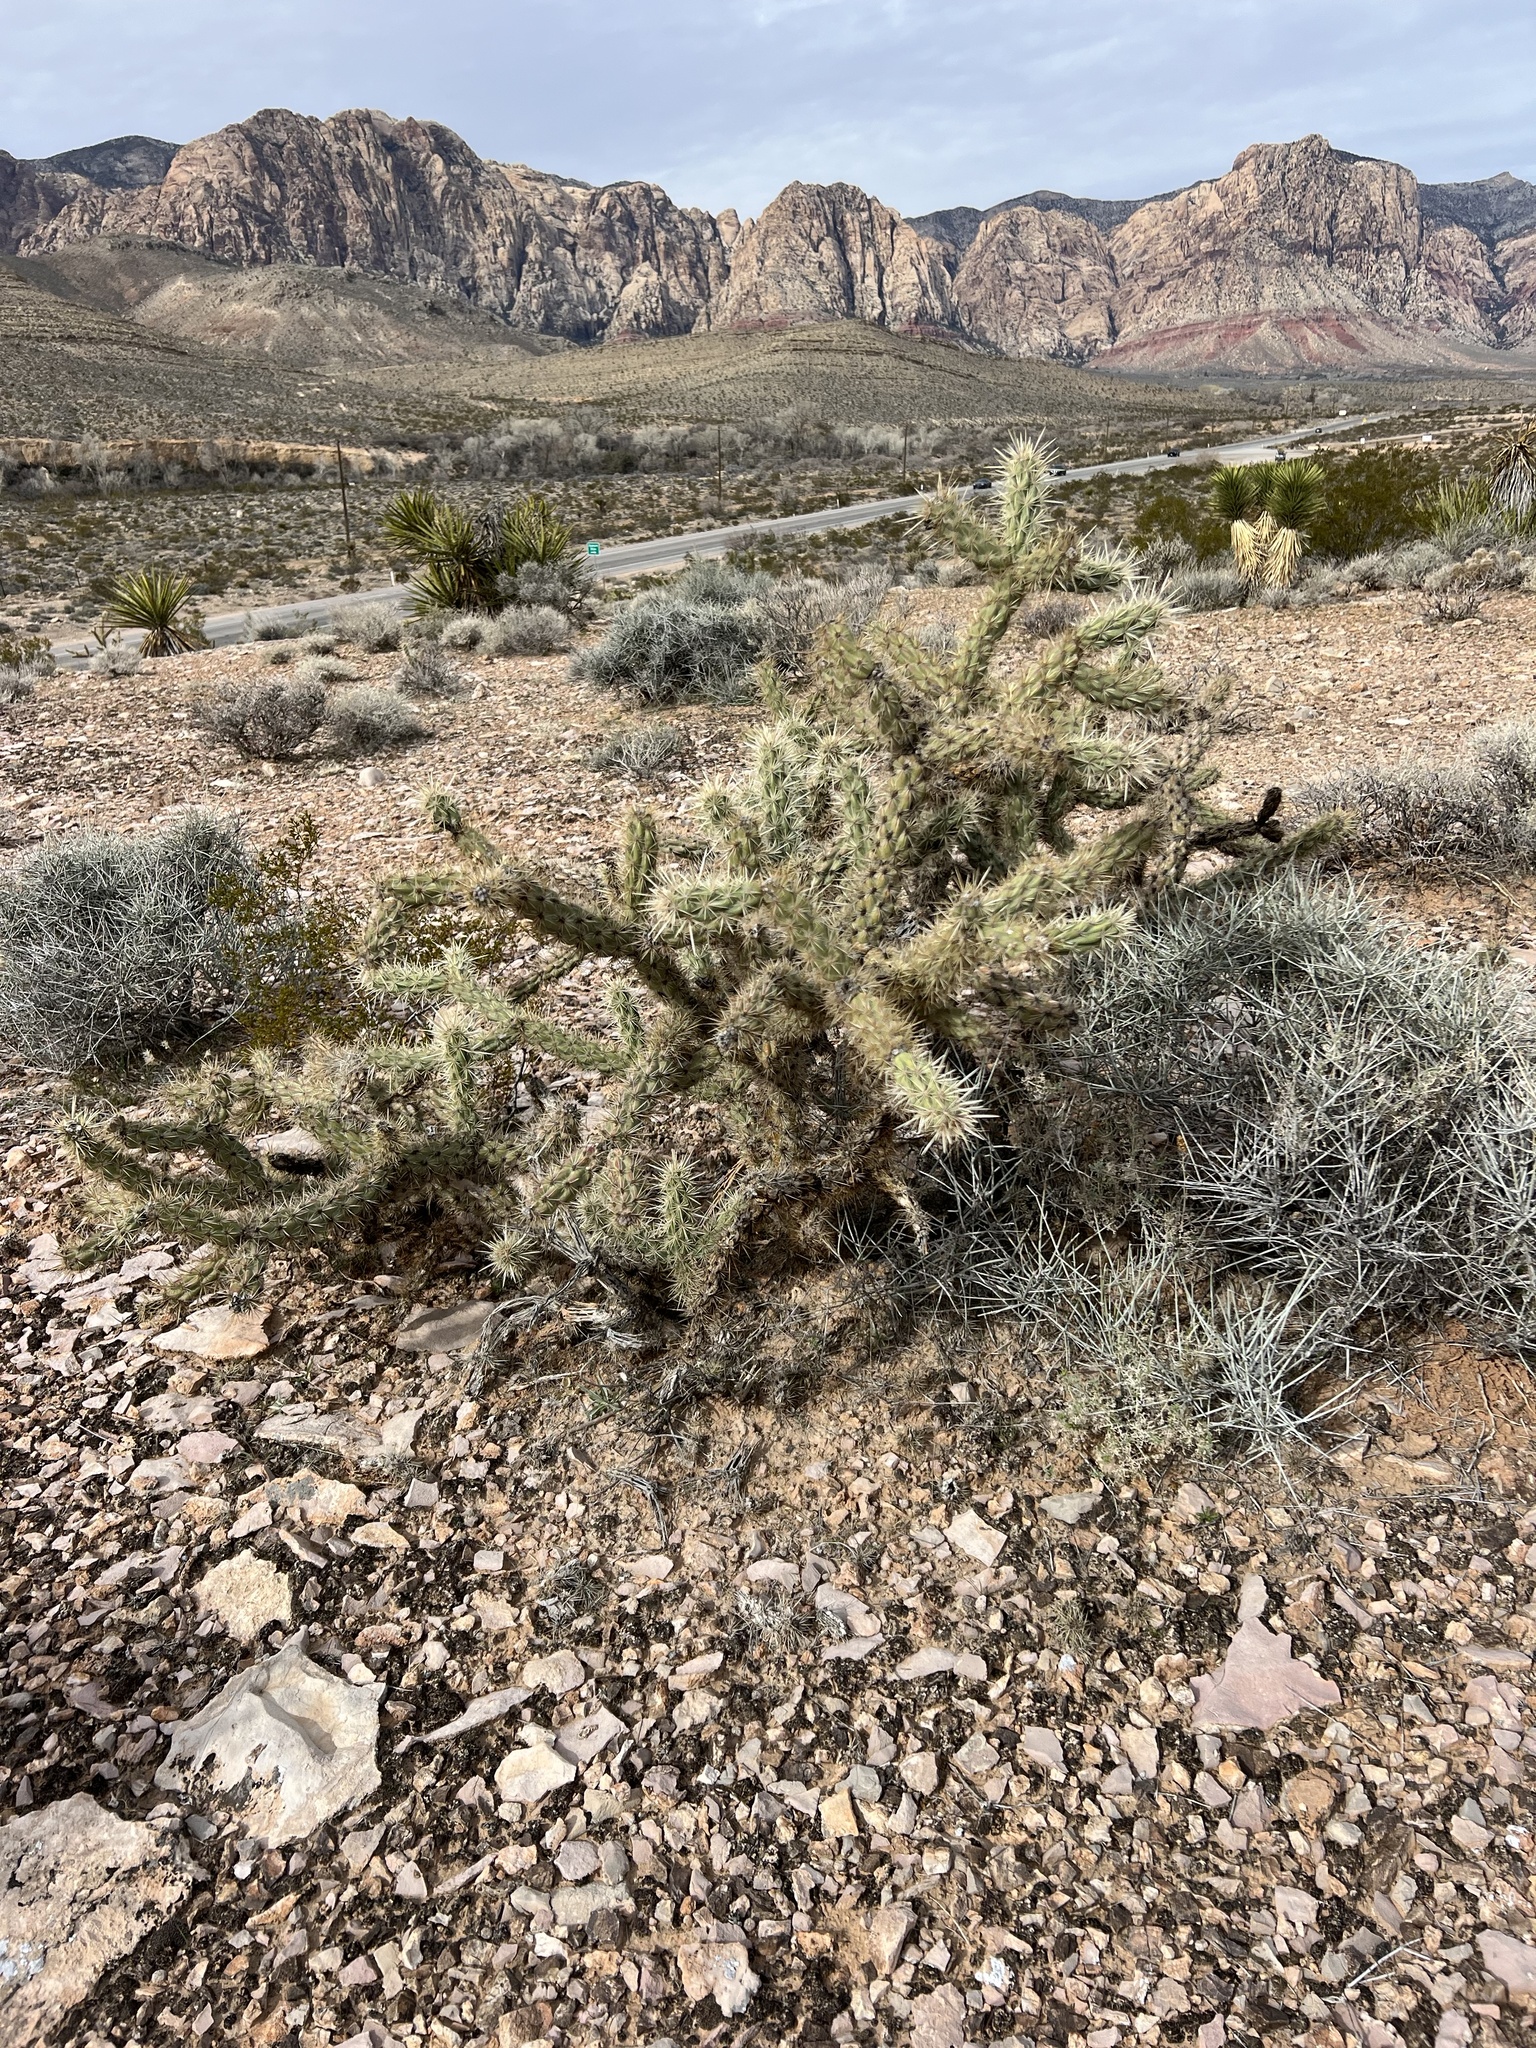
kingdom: Plantae
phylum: Tracheophyta
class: Magnoliopsida
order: Caryophyllales
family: Cactaceae
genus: Cylindropuntia
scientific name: Cylindropuntia acanthocarpa
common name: Buckhorn cholla
